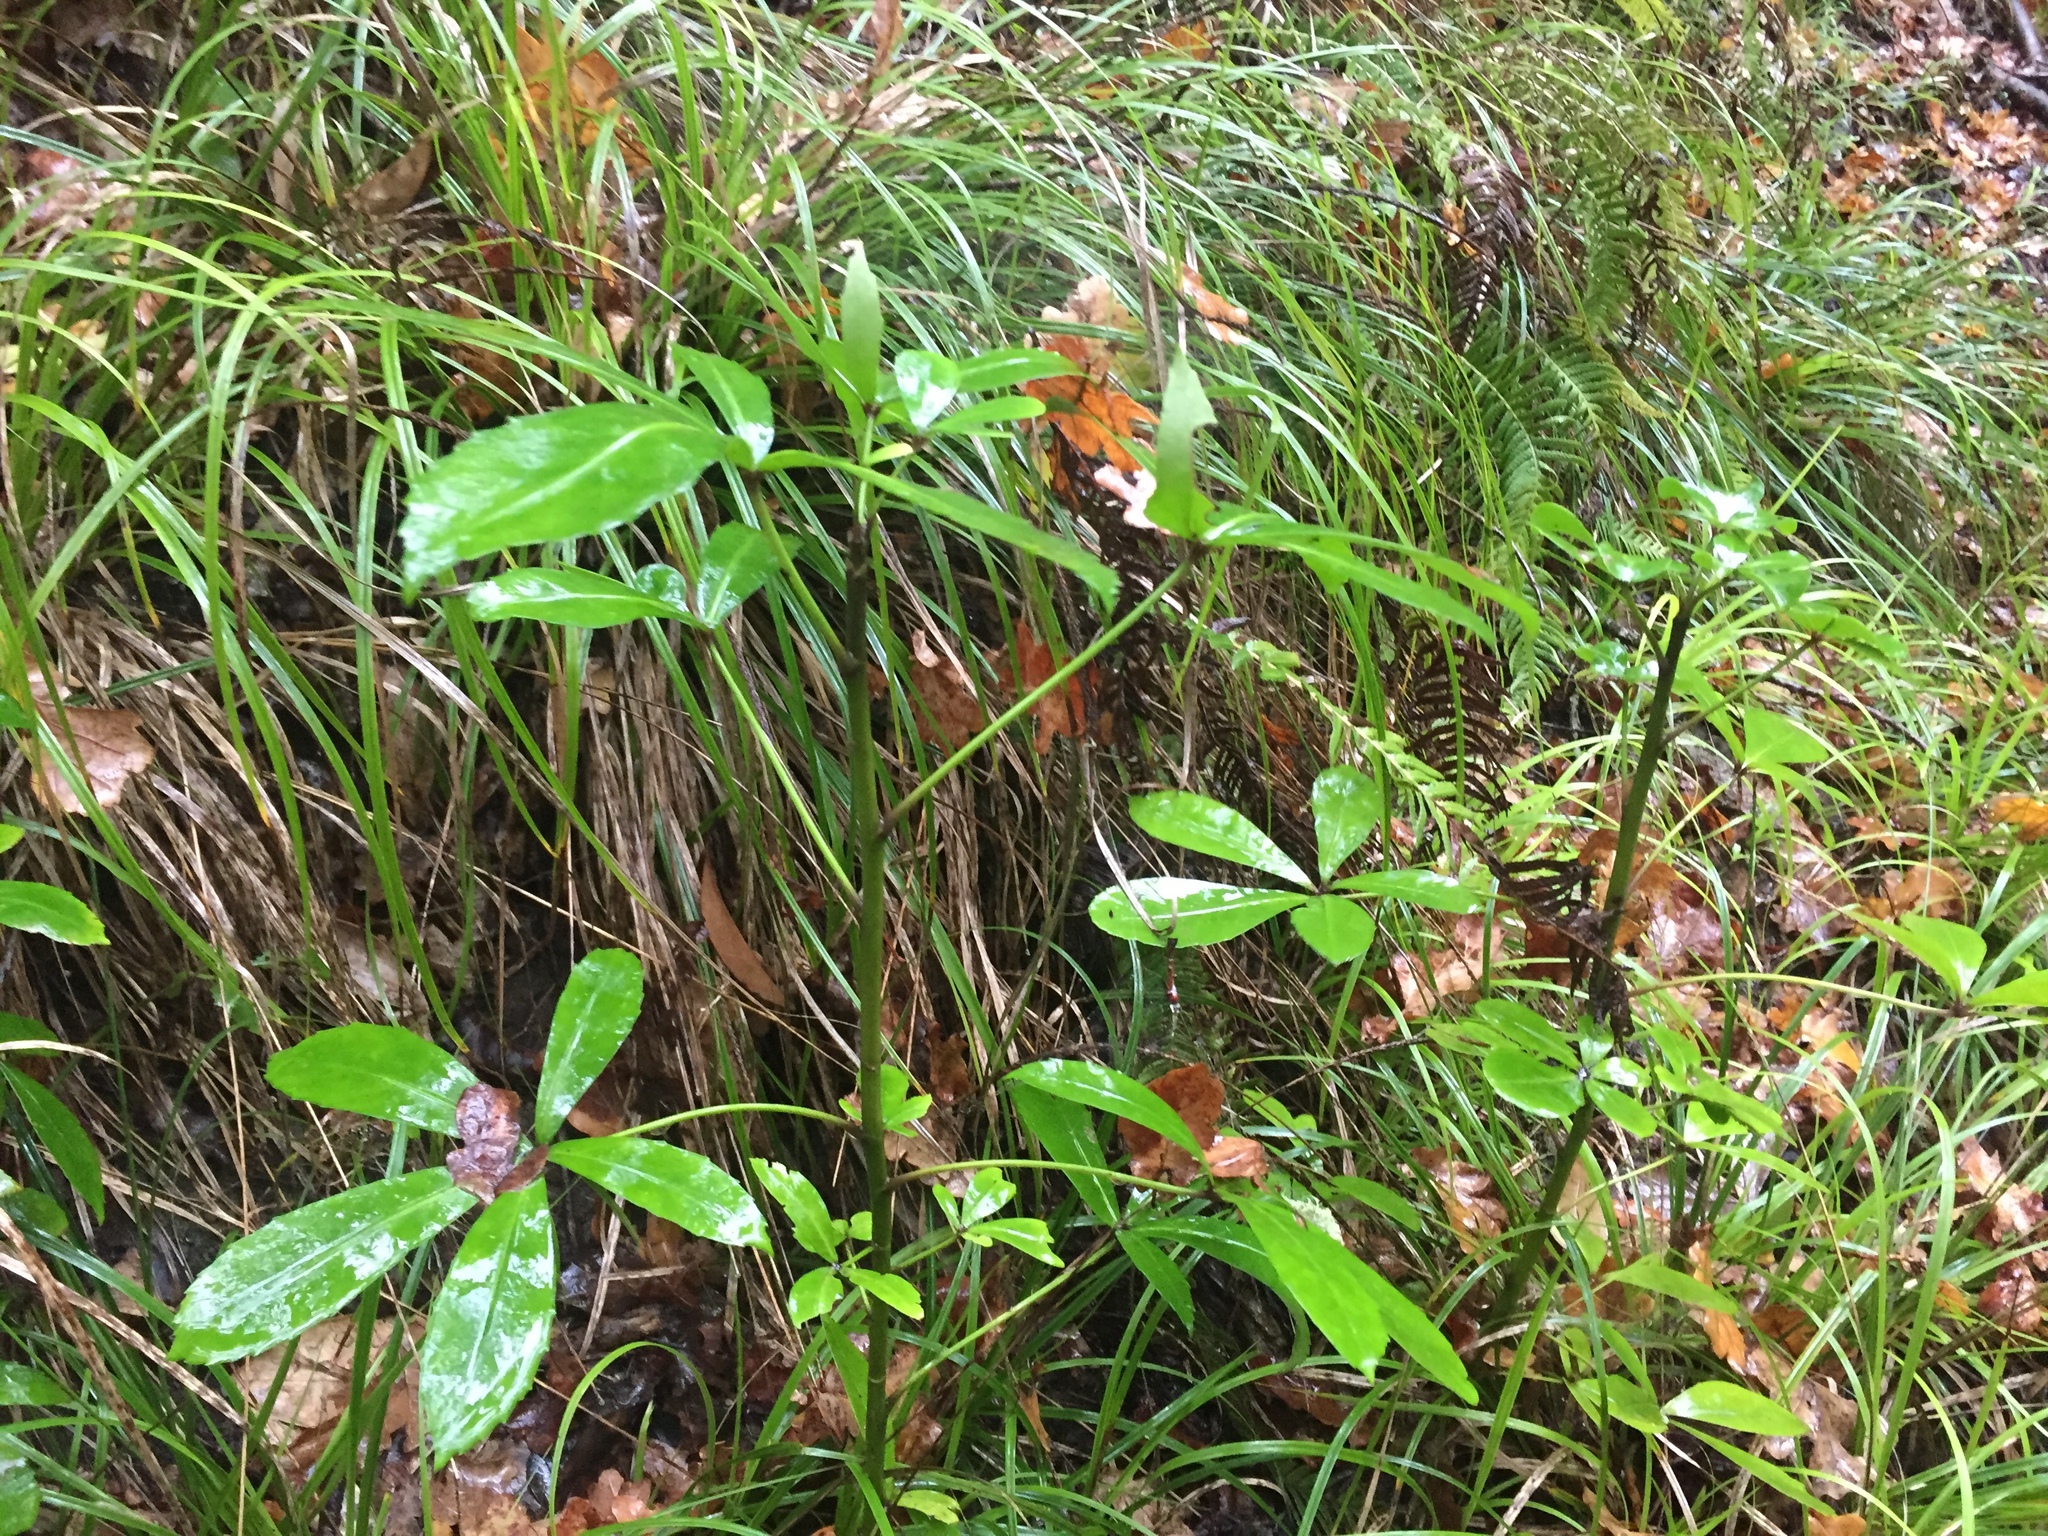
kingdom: Plantae
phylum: Tracheophyta
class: Magnoliopsida
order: Apiales
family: Araliaceae
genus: Pseudopanax
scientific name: Pseudopanax lessonii
